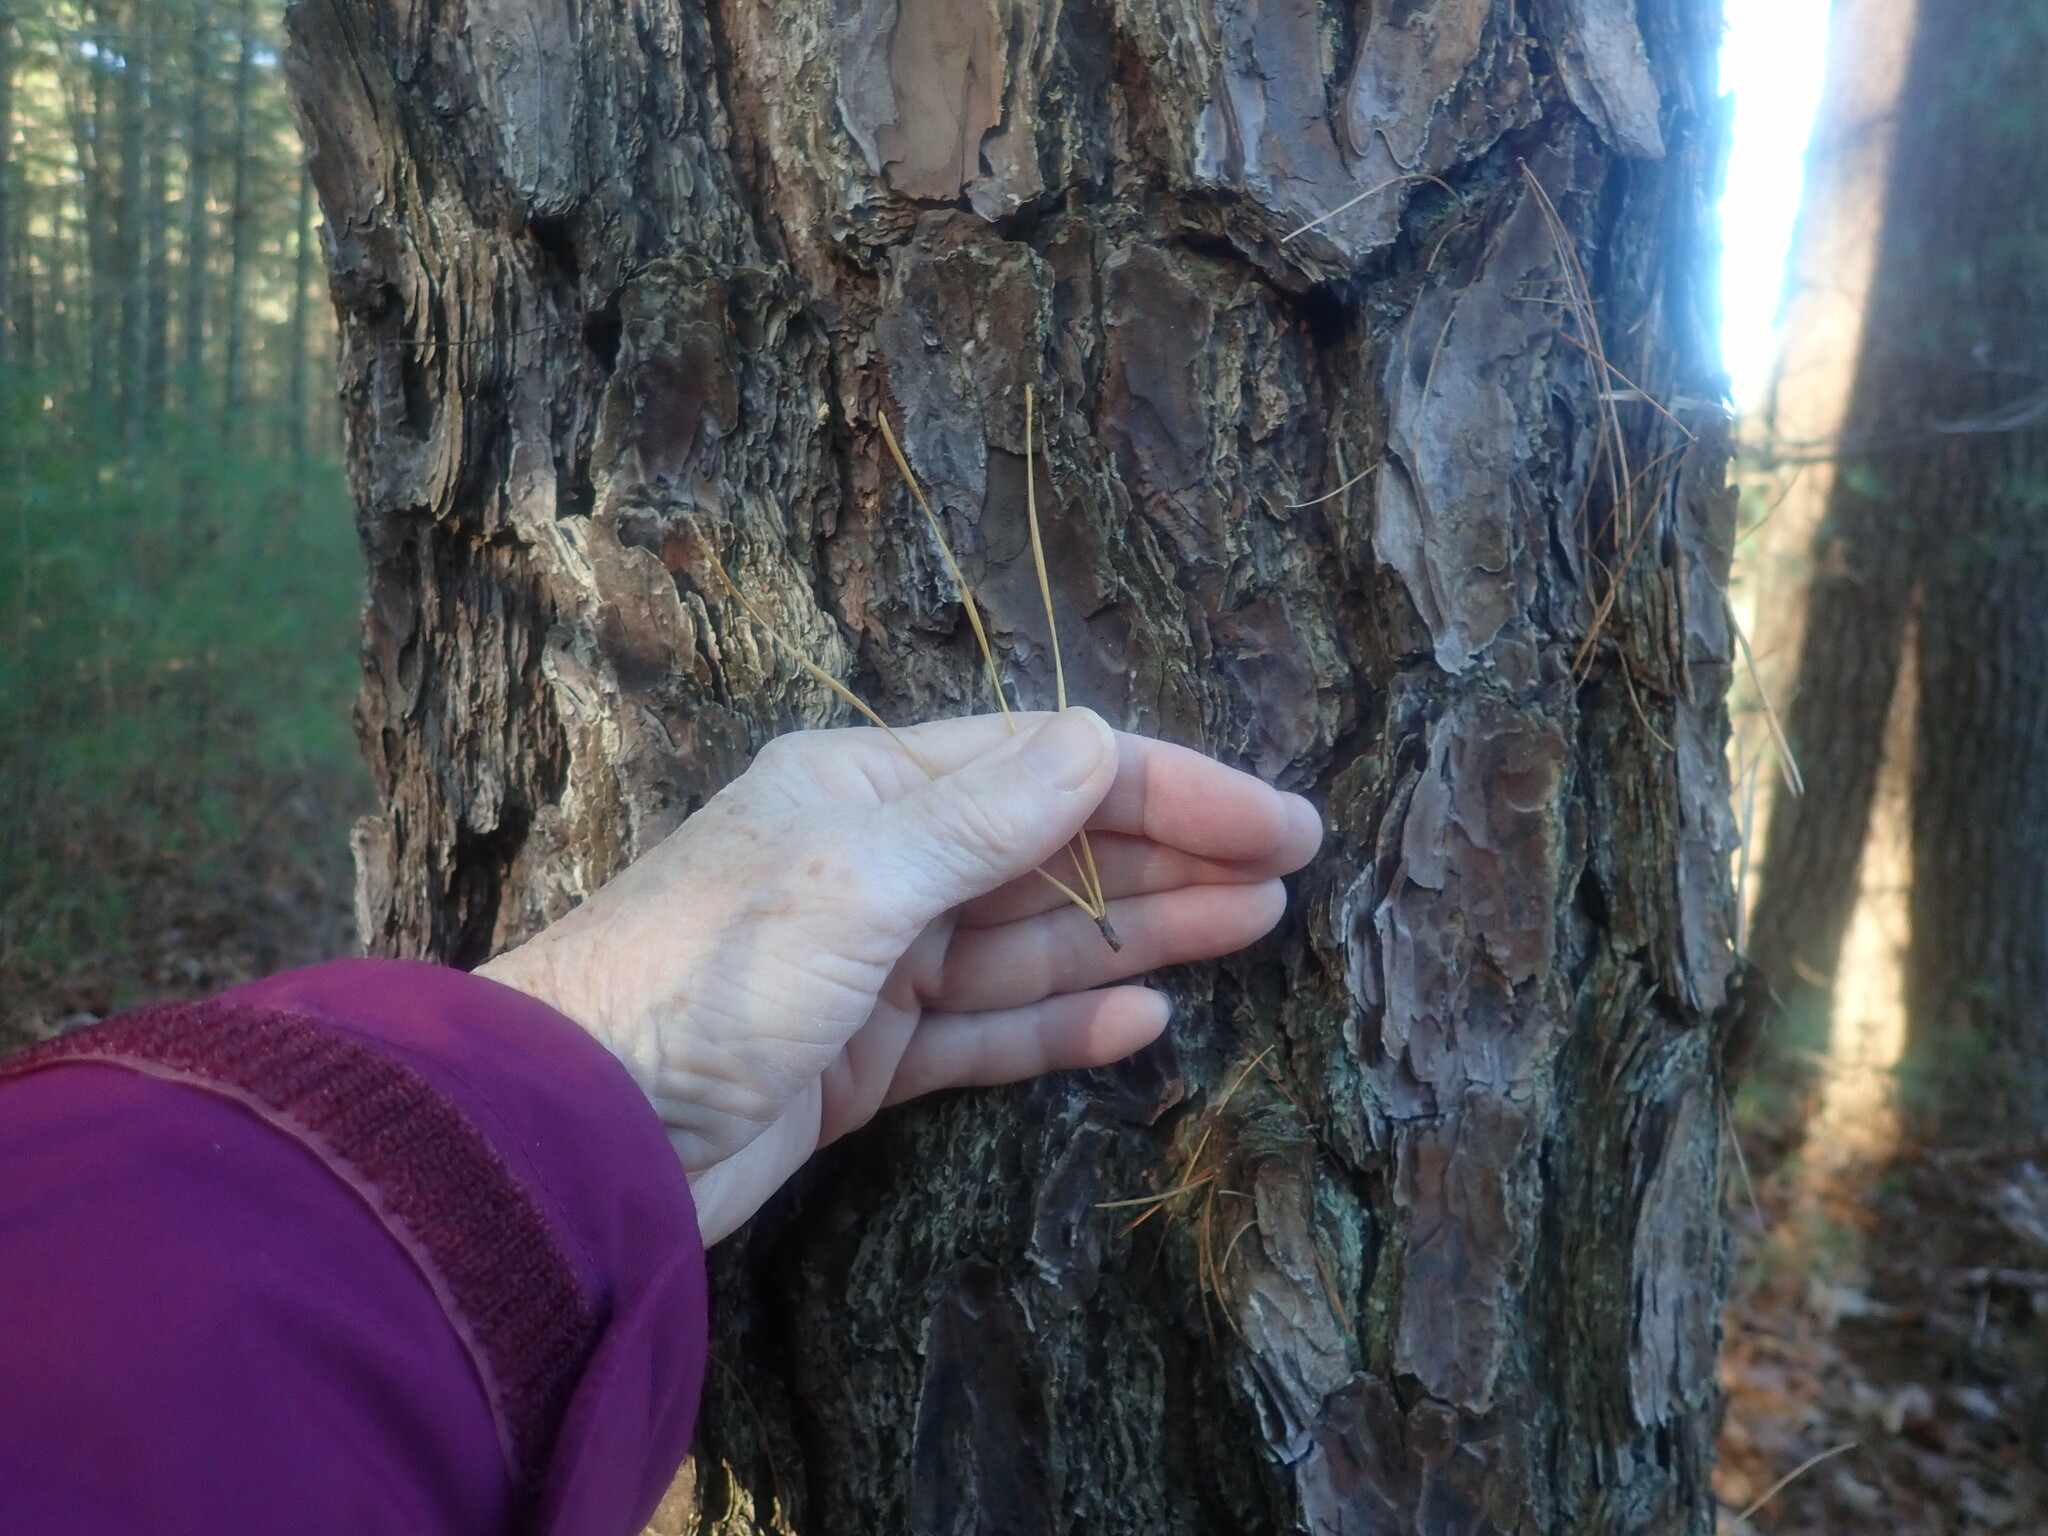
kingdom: Plantae
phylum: Tracheophyta
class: Pinopsida
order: Pinales
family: Pinaceae
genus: Pinus
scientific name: Pinus rigida
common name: Pitch pine
